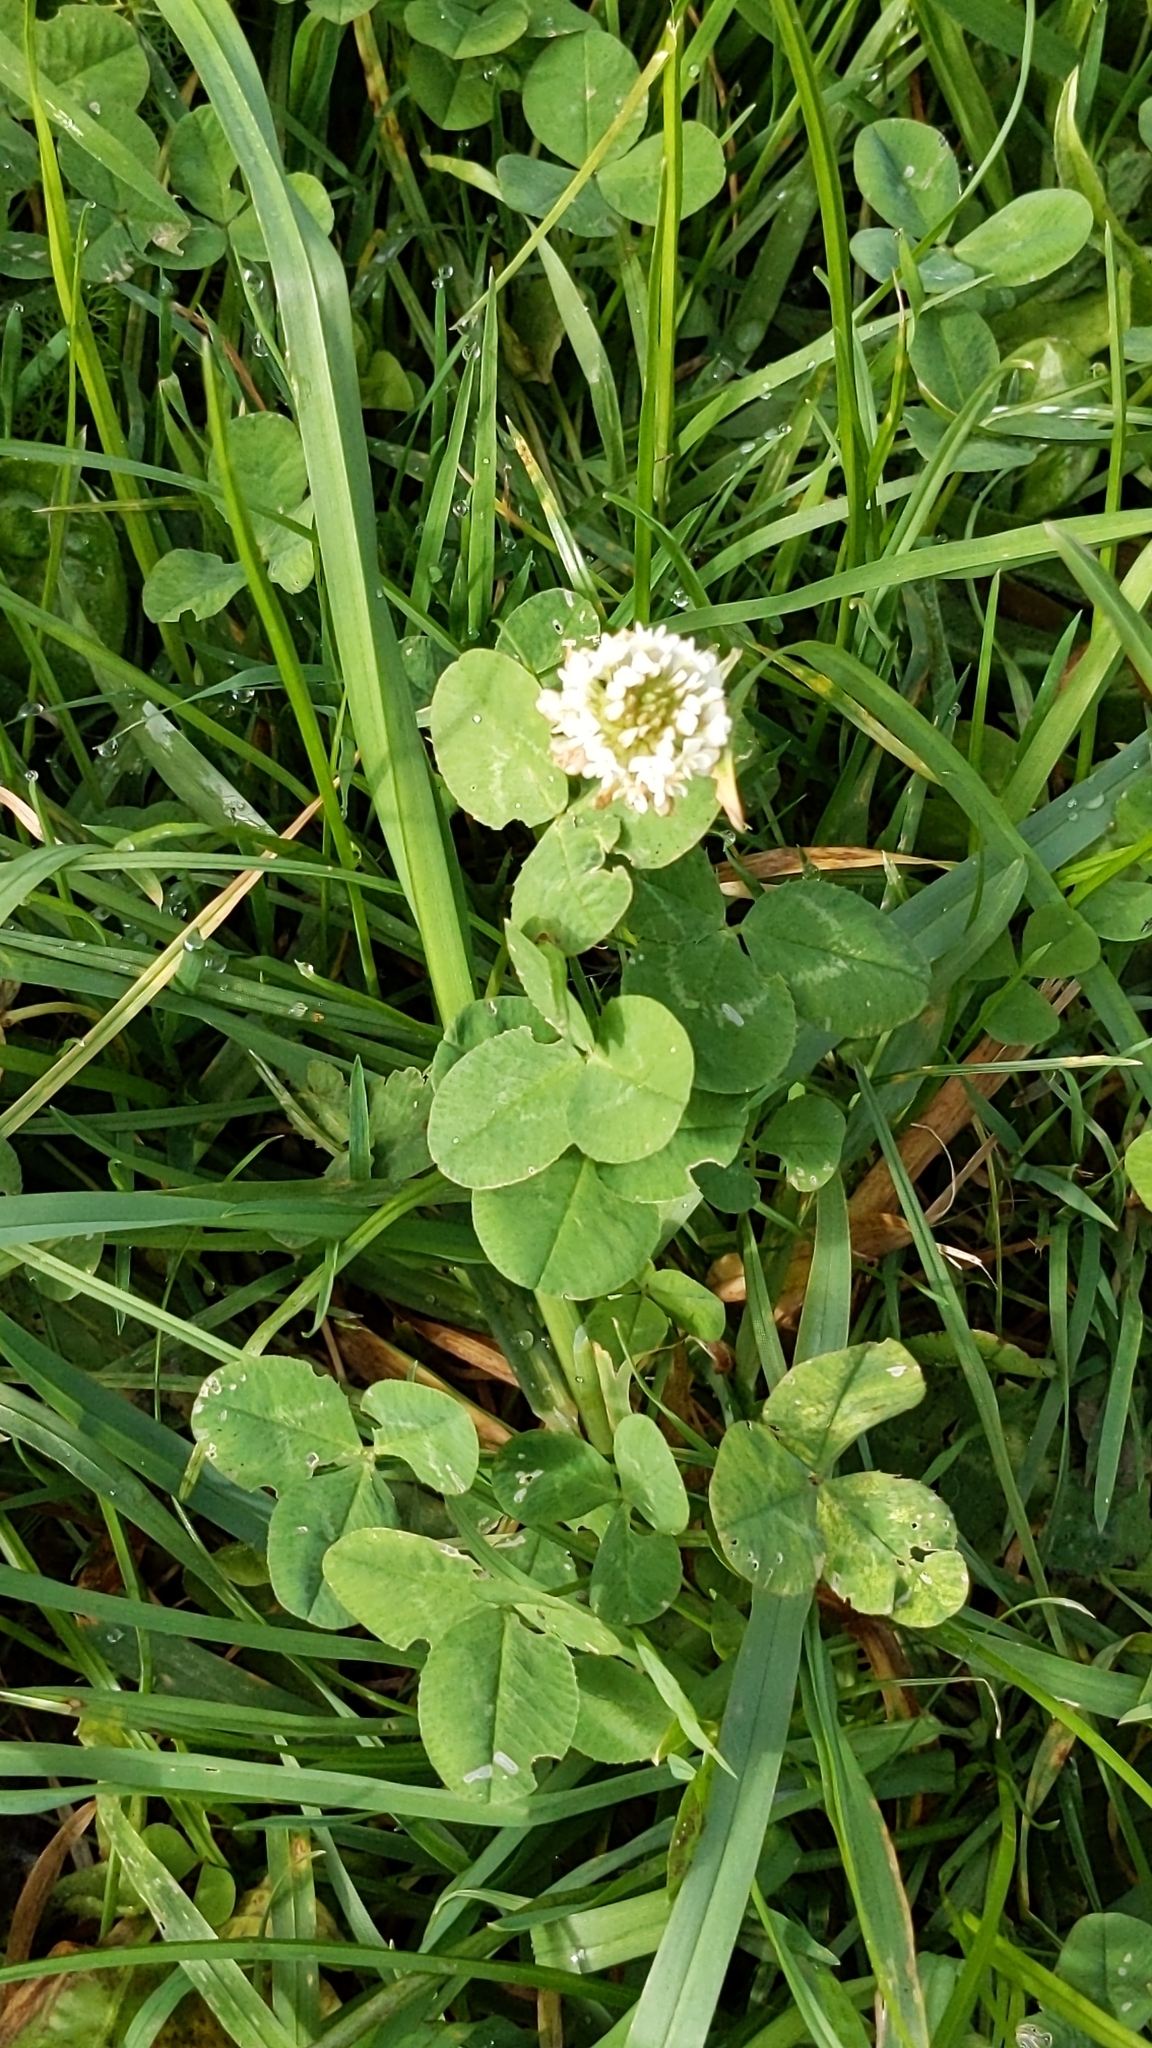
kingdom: Plantae
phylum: Tracheophyta
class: Magnoliopsida
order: Fabales
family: Fabaceae
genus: Trifolium
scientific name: Trifolium repens
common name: White clover
